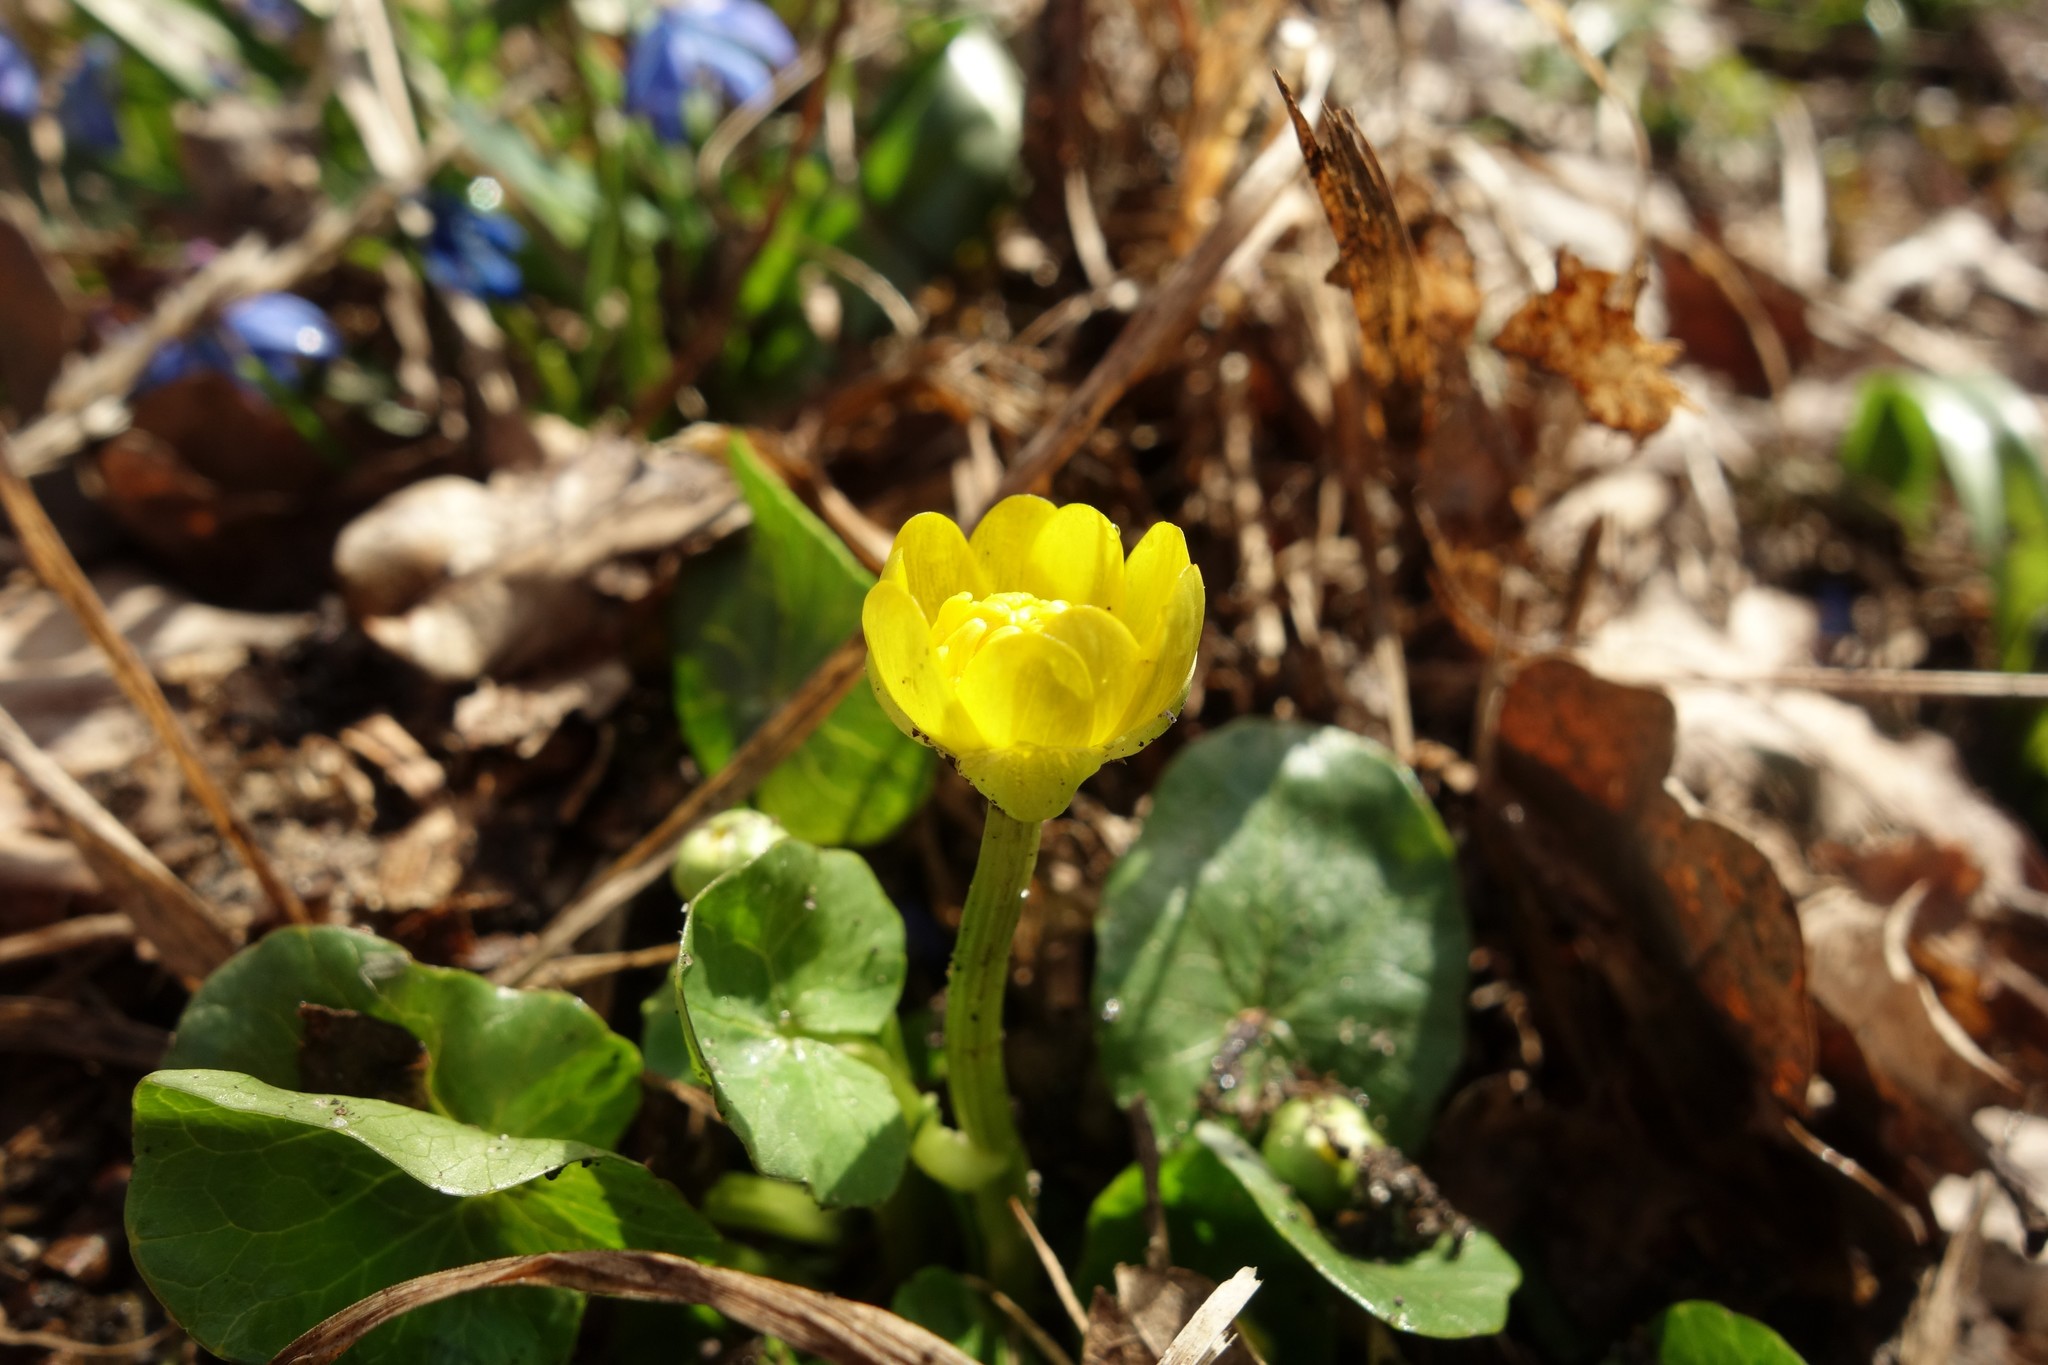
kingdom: Plantae
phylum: Tracheophyta
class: Magnoliopsida
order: Ranunculales
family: Ranunculaceae
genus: Ficaria
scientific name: Ficaria verna
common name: Lesser celandine
